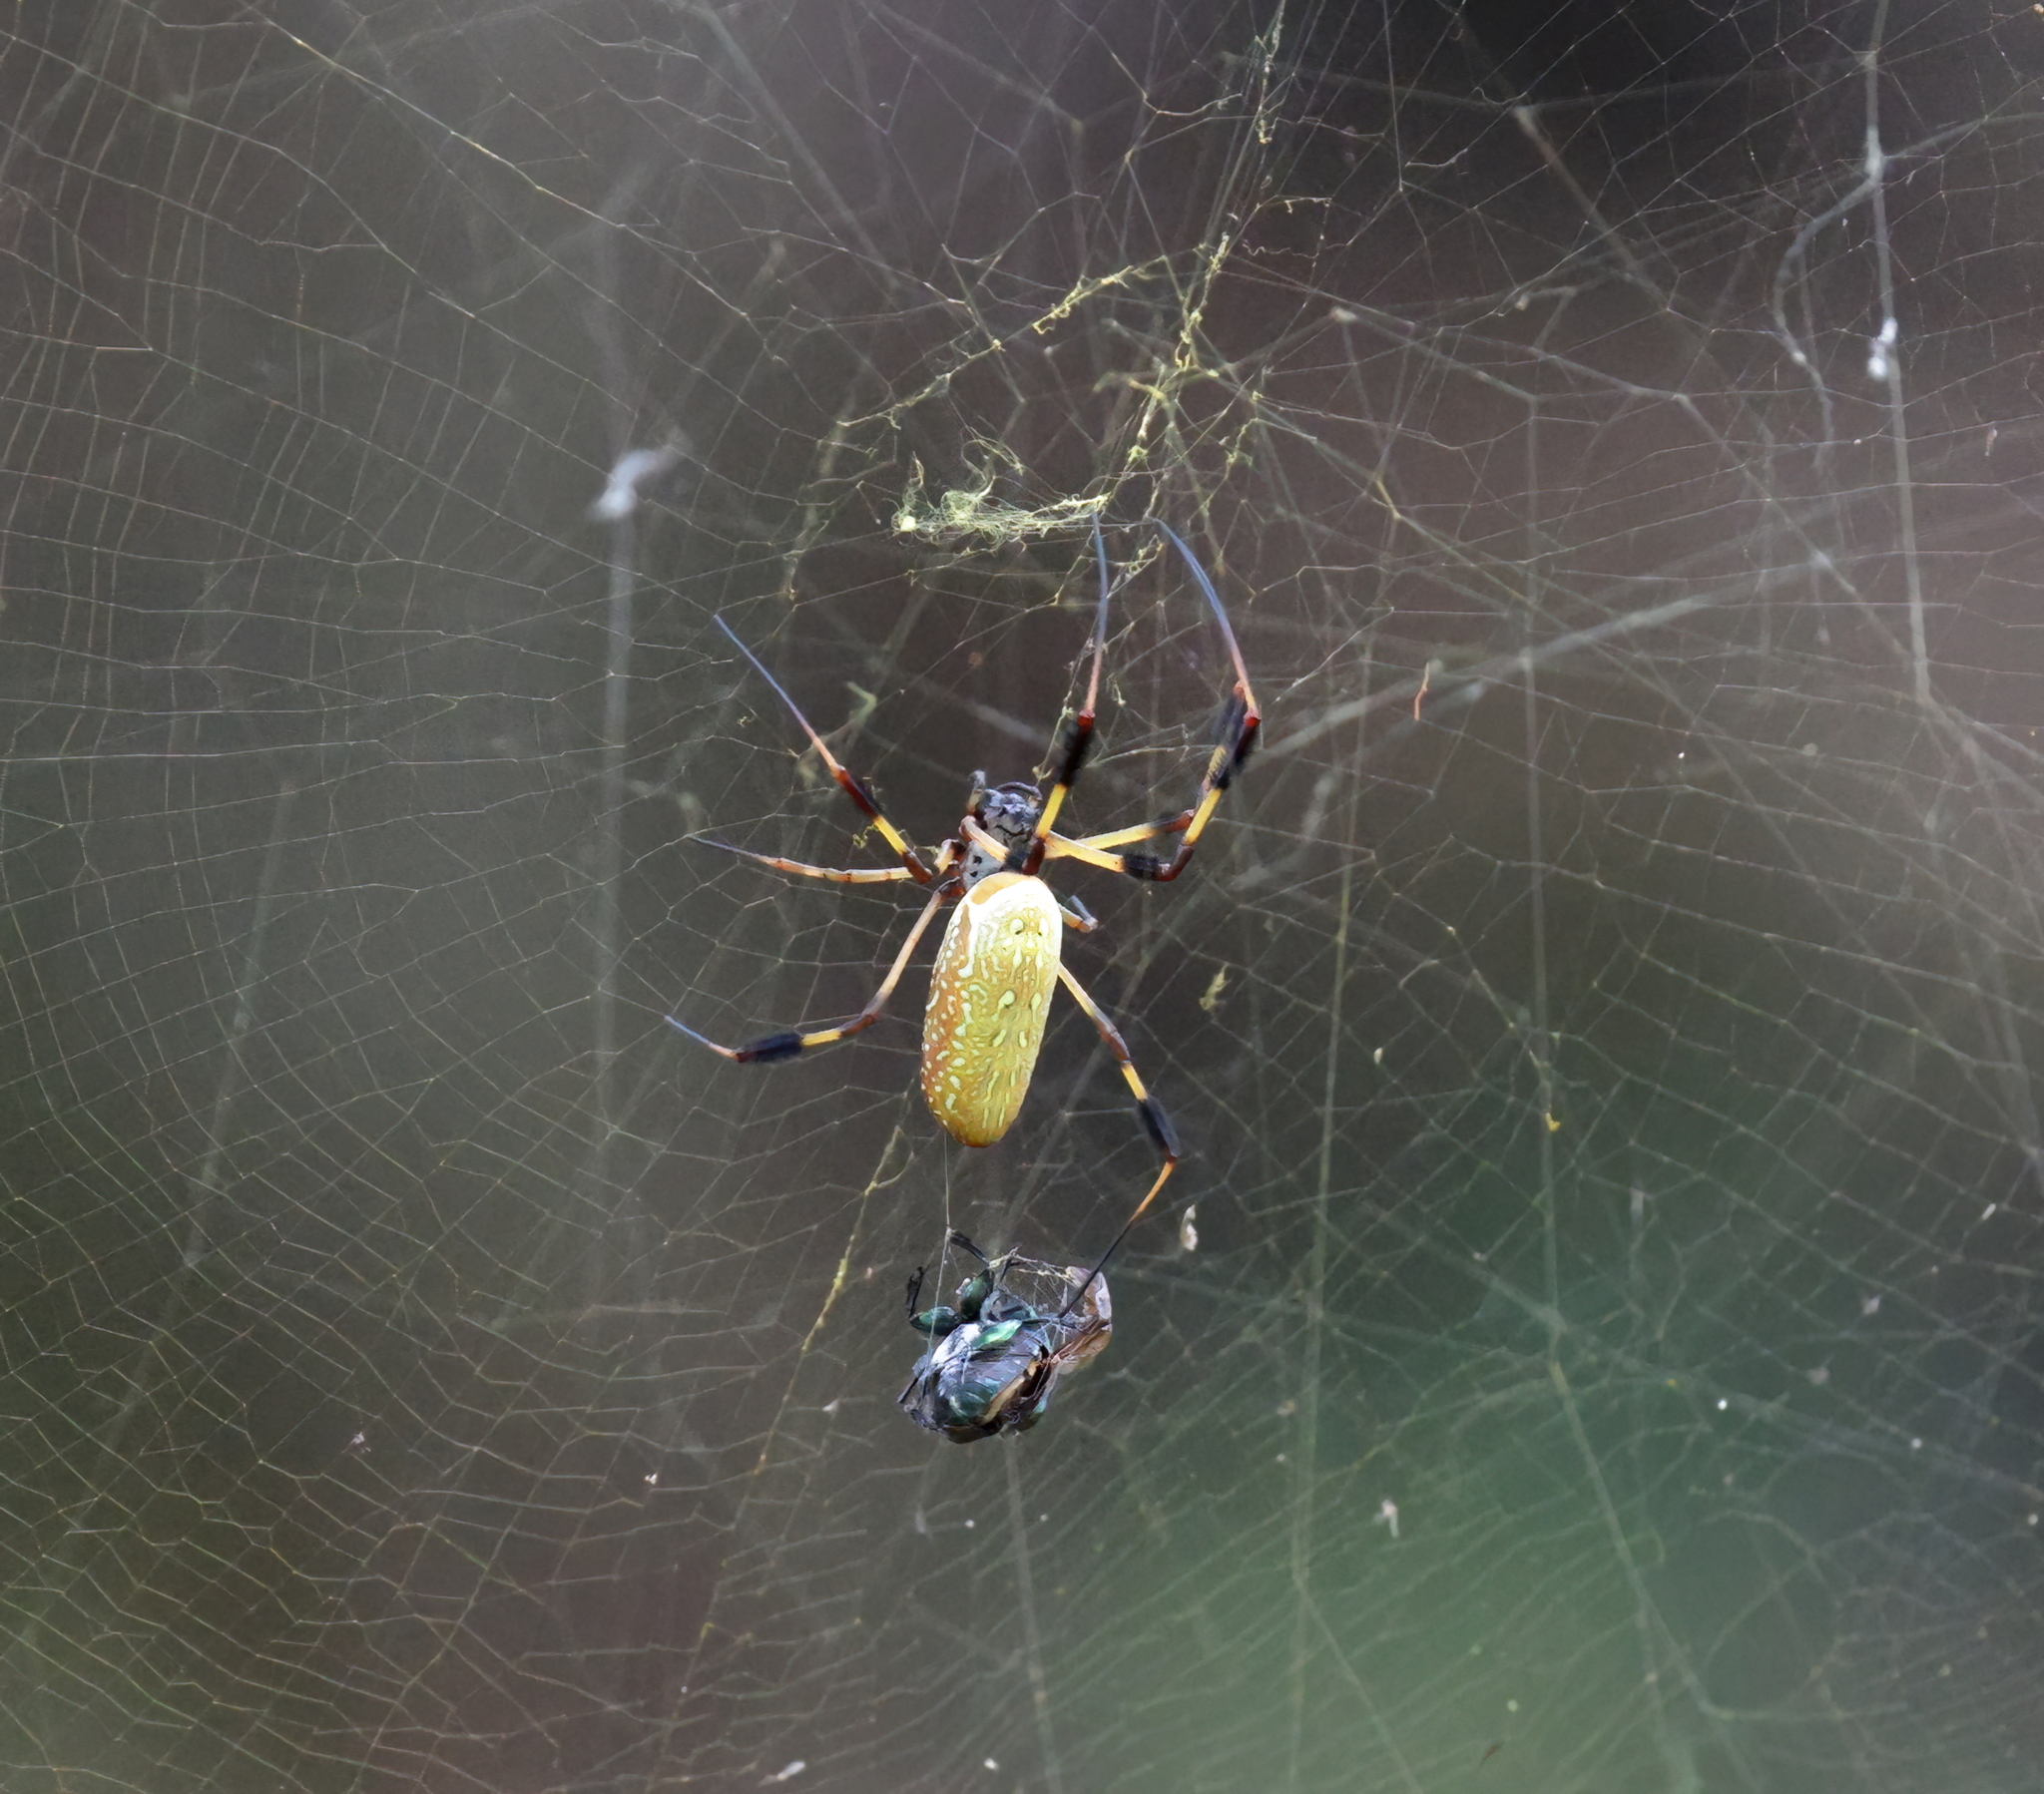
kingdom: Animalia
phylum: Arthropoda
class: Arachnida
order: Araneae
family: Araneidae
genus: Trichonephila
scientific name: Trichonephila clavipes
